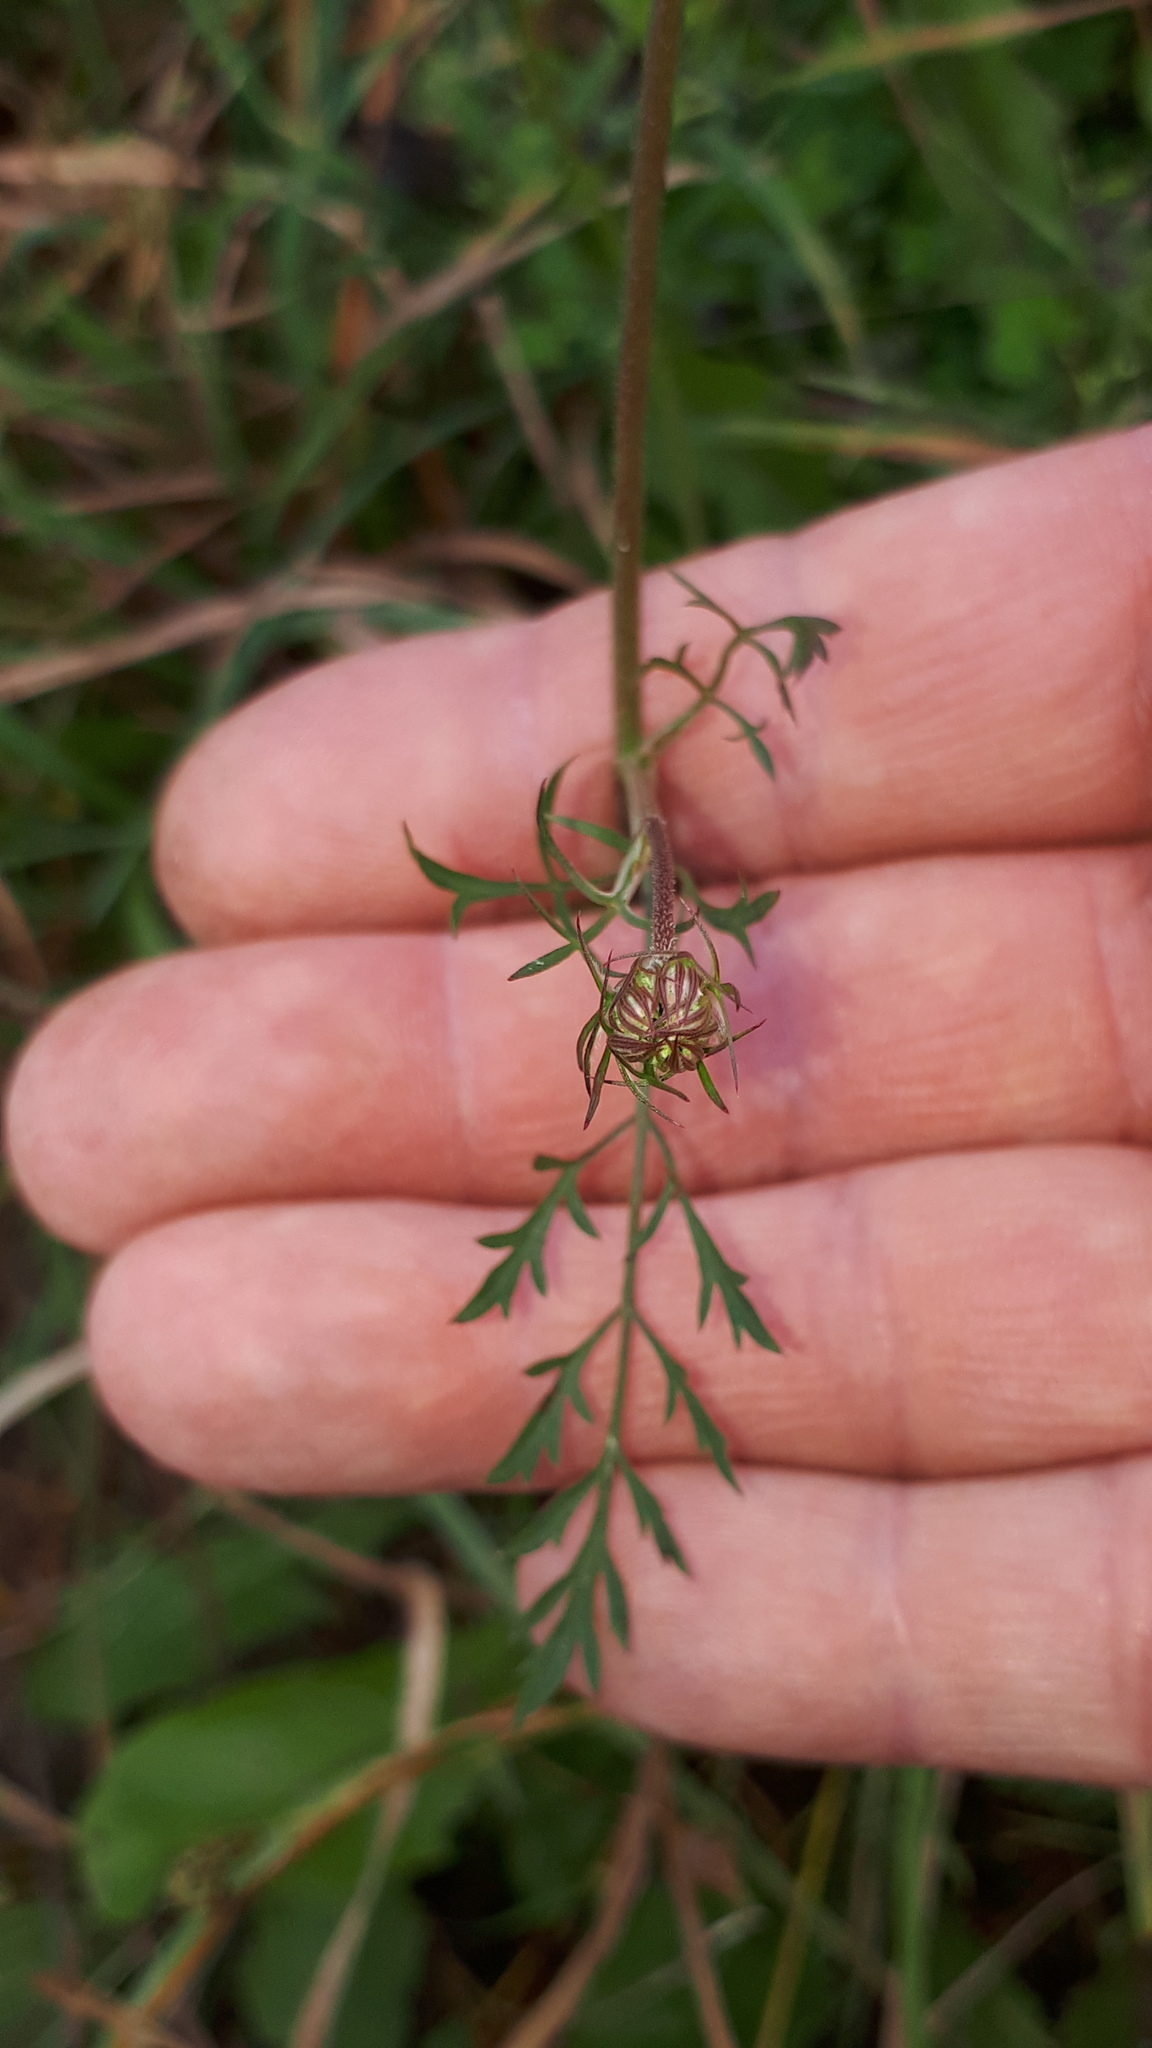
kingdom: Plantae
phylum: Tracheophyta
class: Magnoliopsida
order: Apiales
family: Apiaceae
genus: Daucus
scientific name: Daucus carota
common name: Wild carrot
